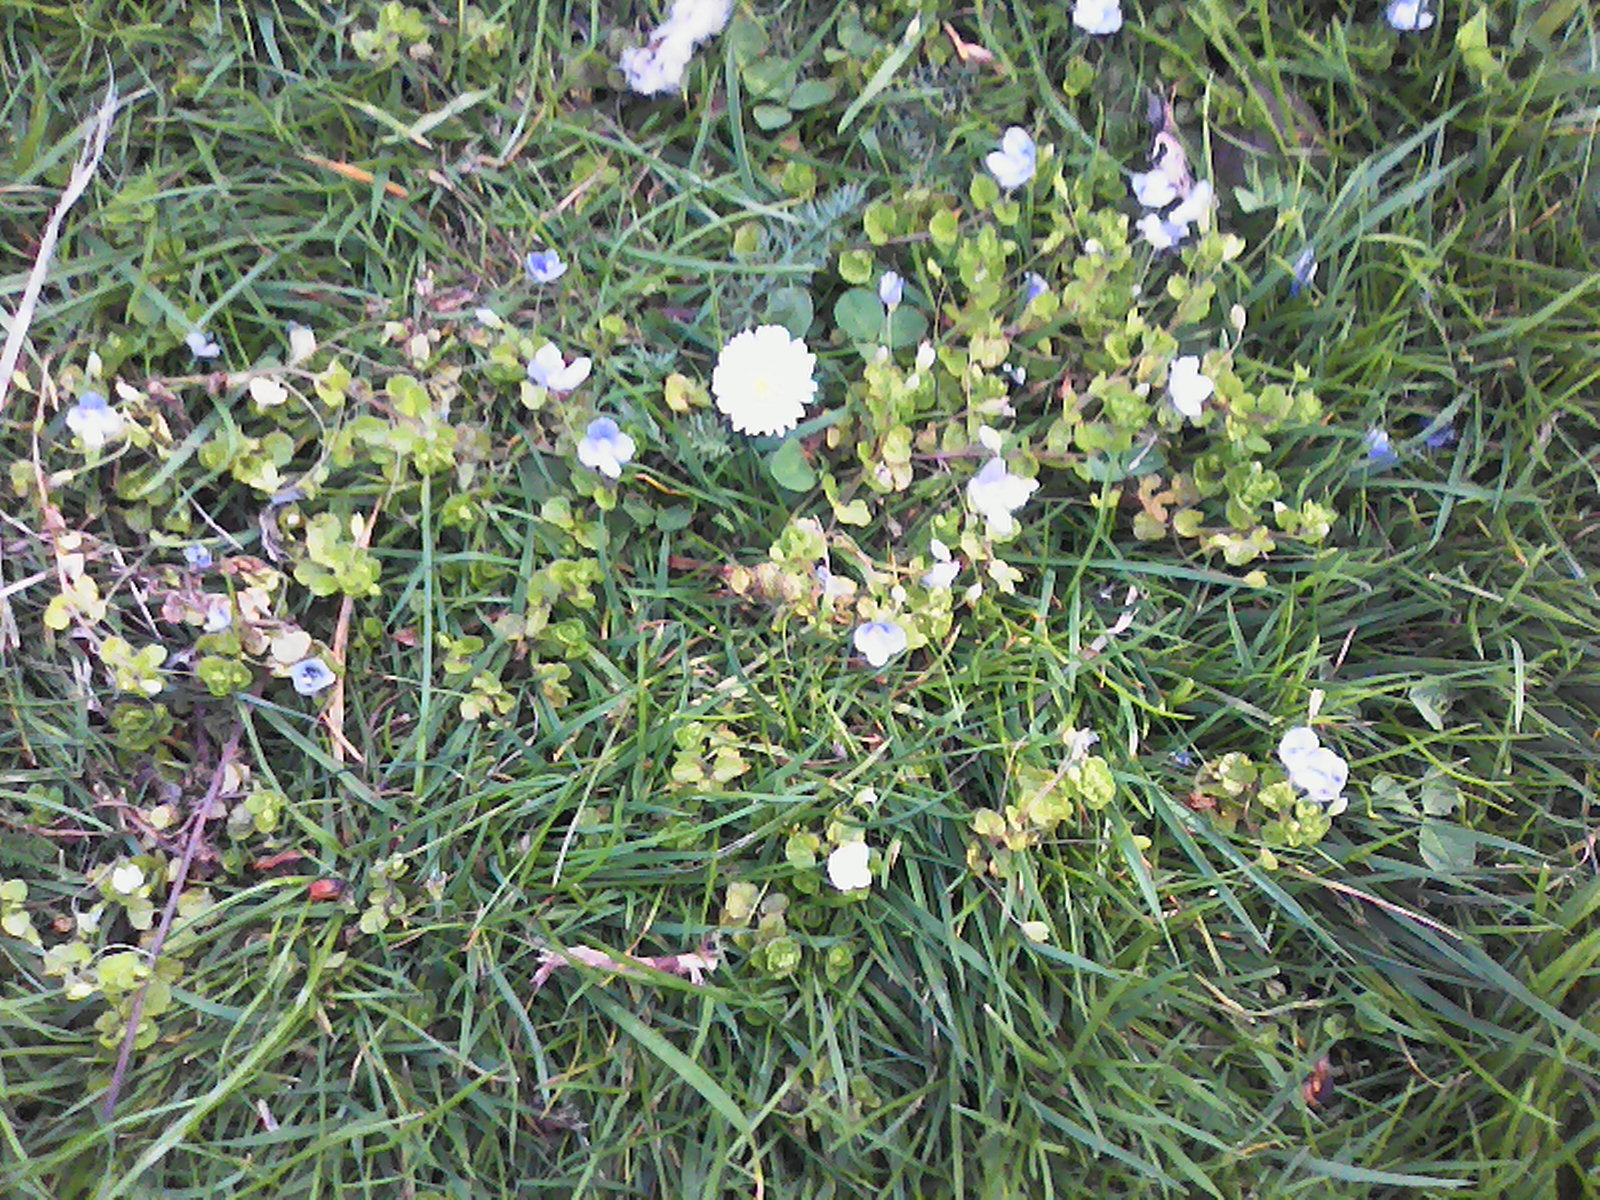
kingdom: Plantae
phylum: Tracheophyta
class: Magnoliopsida
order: Lamiales
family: Plantaginaceae
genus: Veronica
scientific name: Veronica filiformis
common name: Slender speedwell
